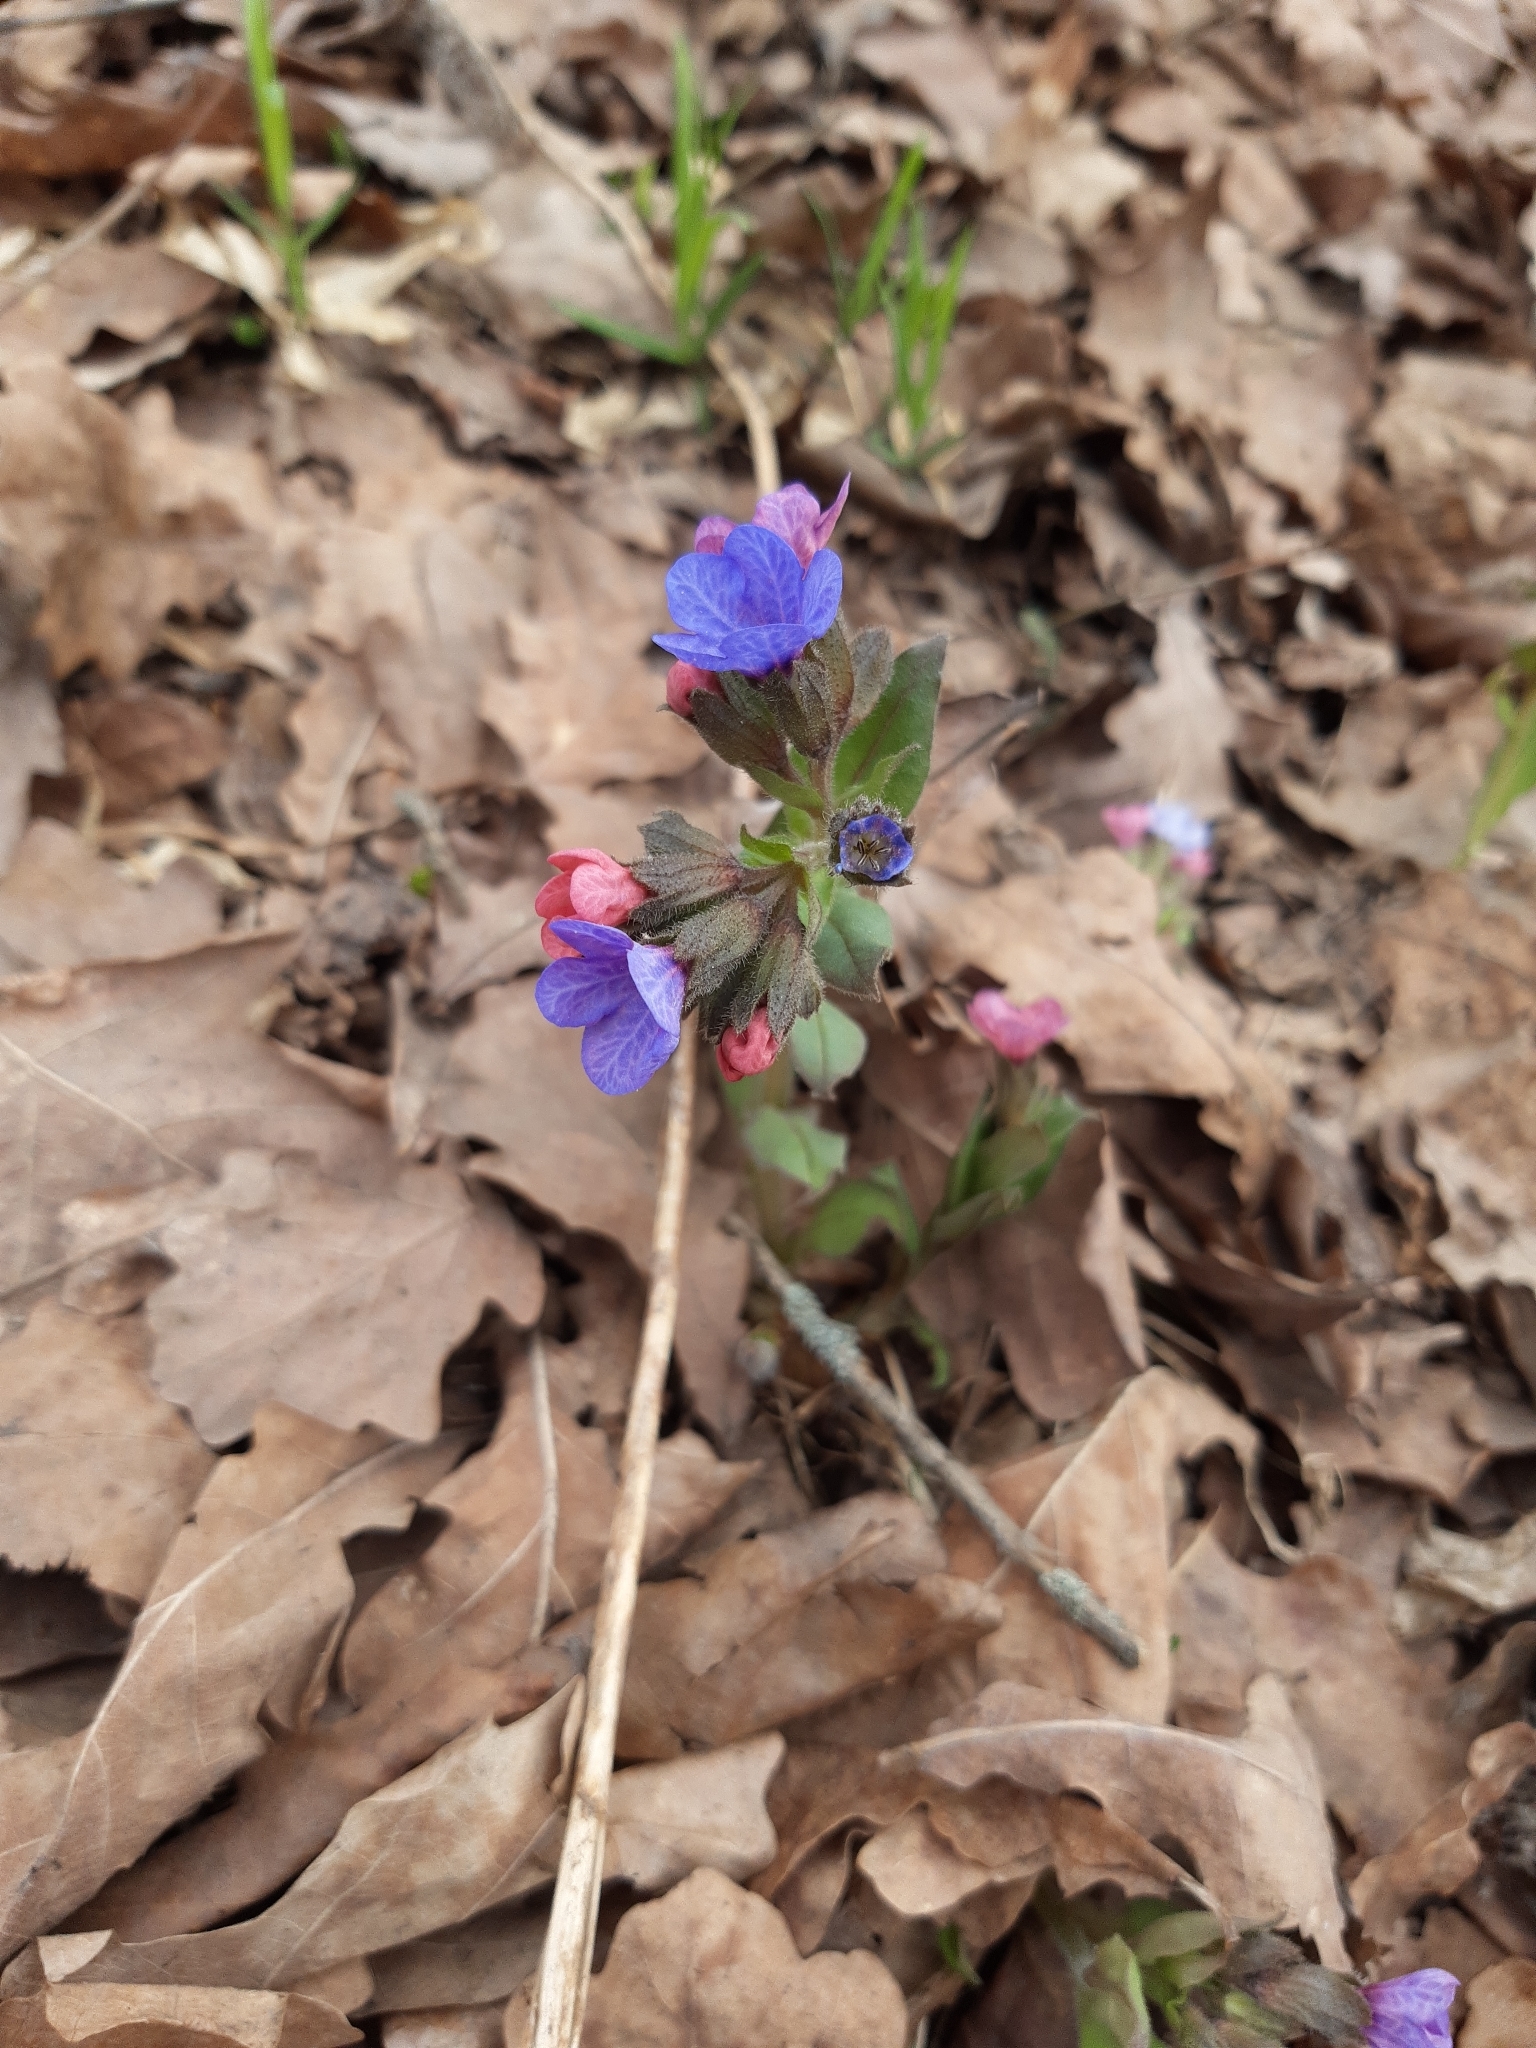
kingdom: Plantae
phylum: Tracheophyta
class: Magnoliopsida
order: Boraginales
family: Boraginaceae
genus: Pulmonaria
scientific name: Pulmonaria obscura
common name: Suffolk lungwort
